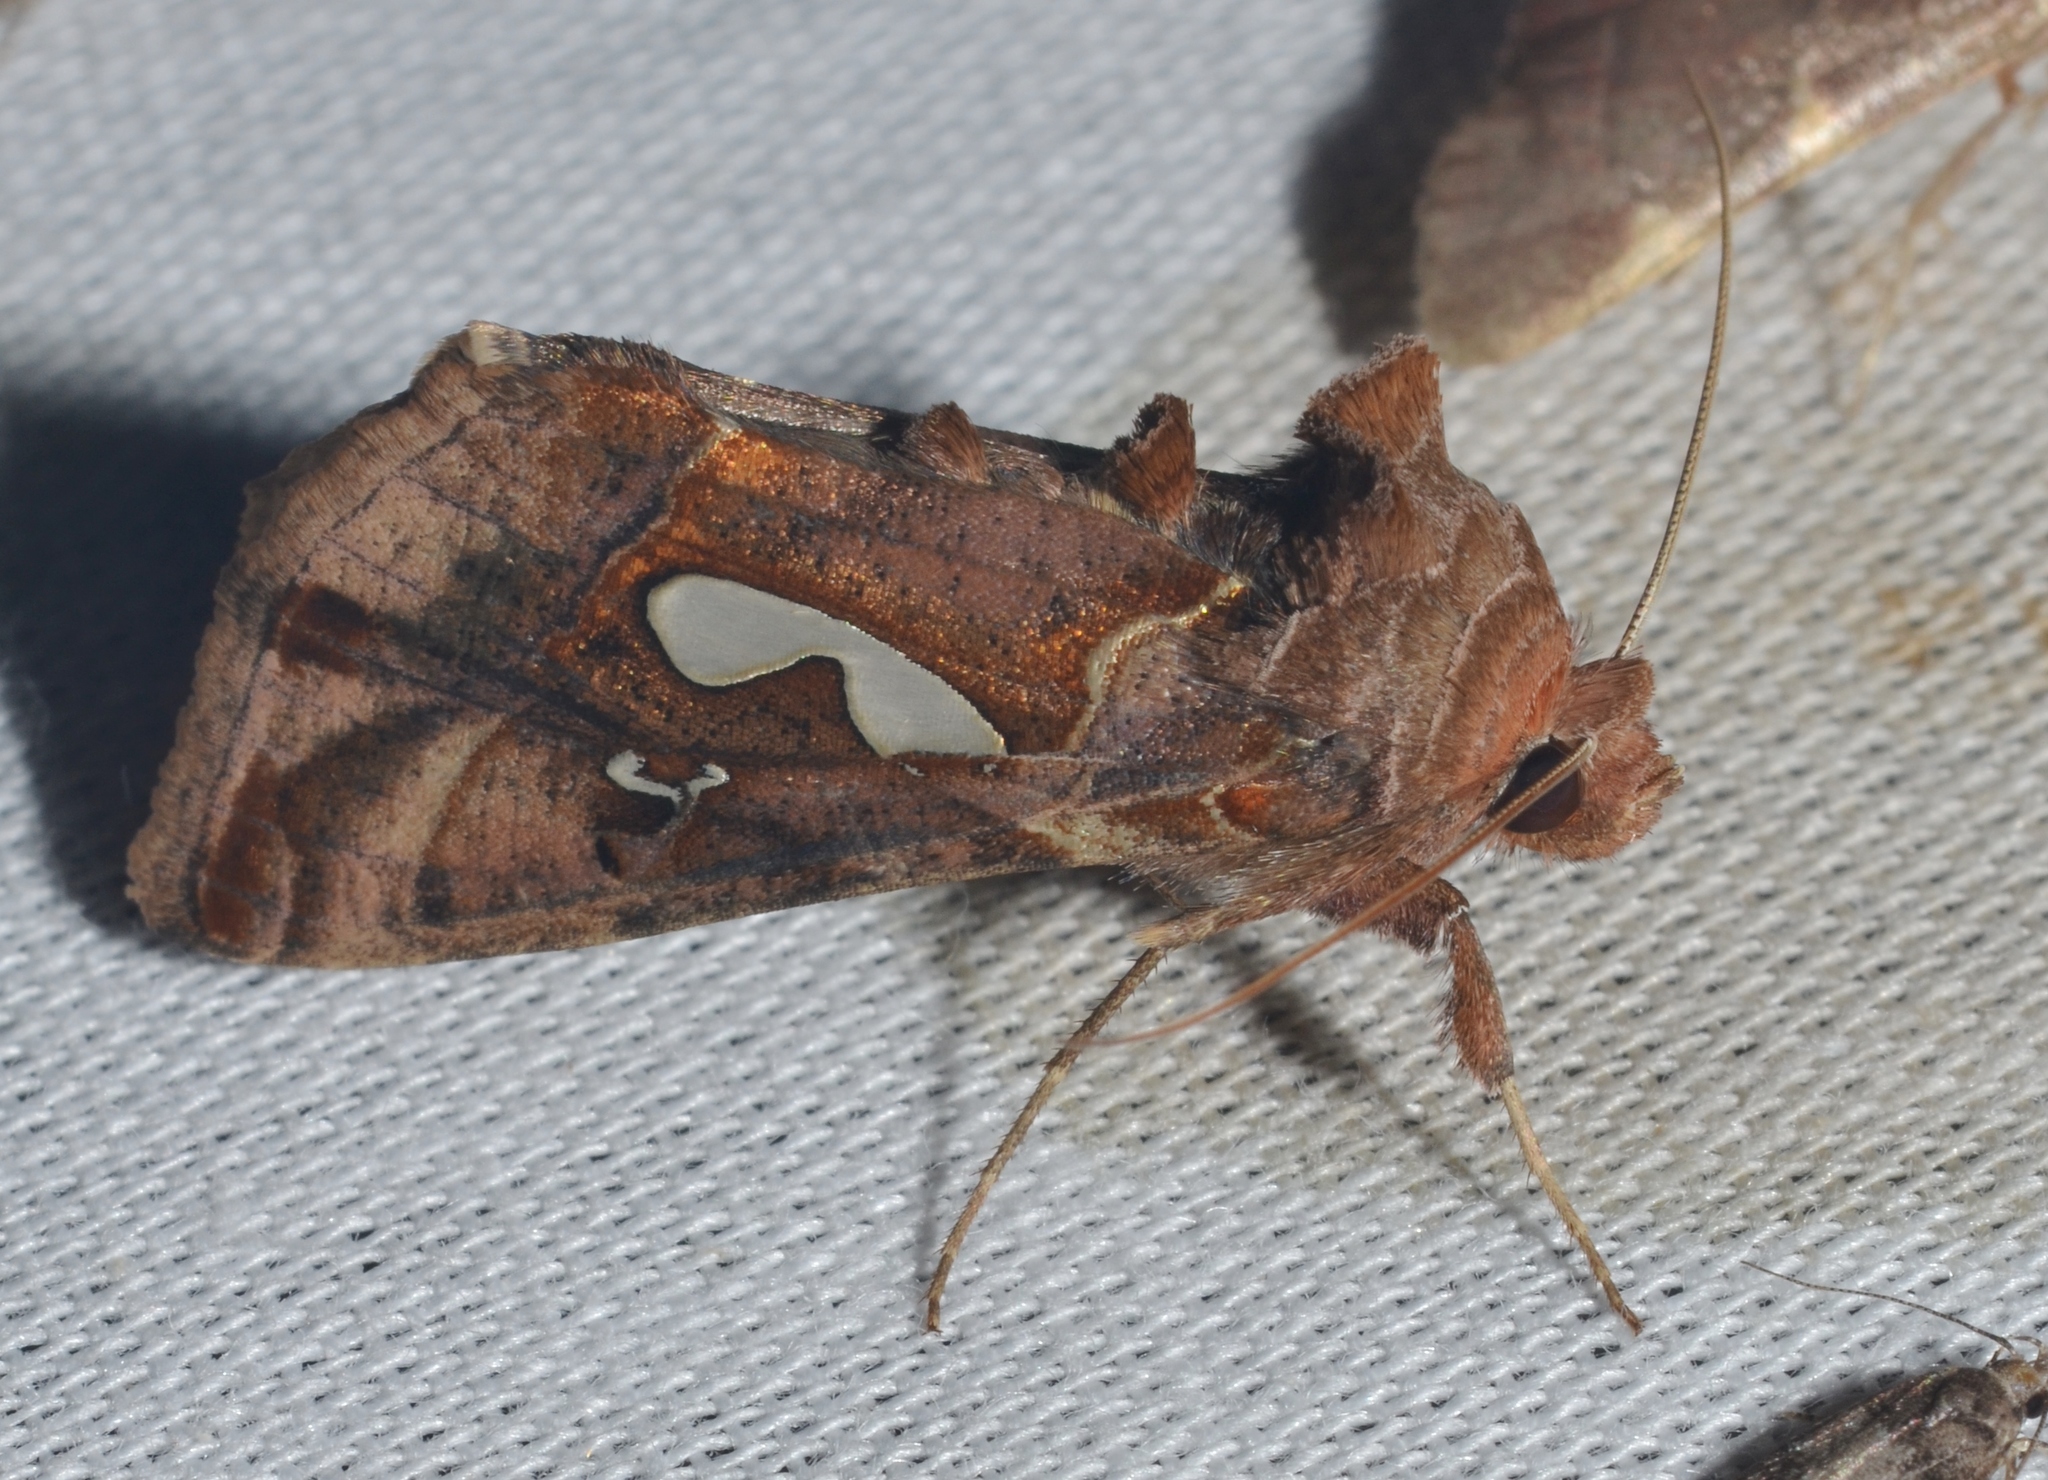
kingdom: Animalia
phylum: Arthropoda
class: Insecta
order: Lepidoptera
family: Noctuidae
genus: Megalographa
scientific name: Megalographa biloba
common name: Cutworm
